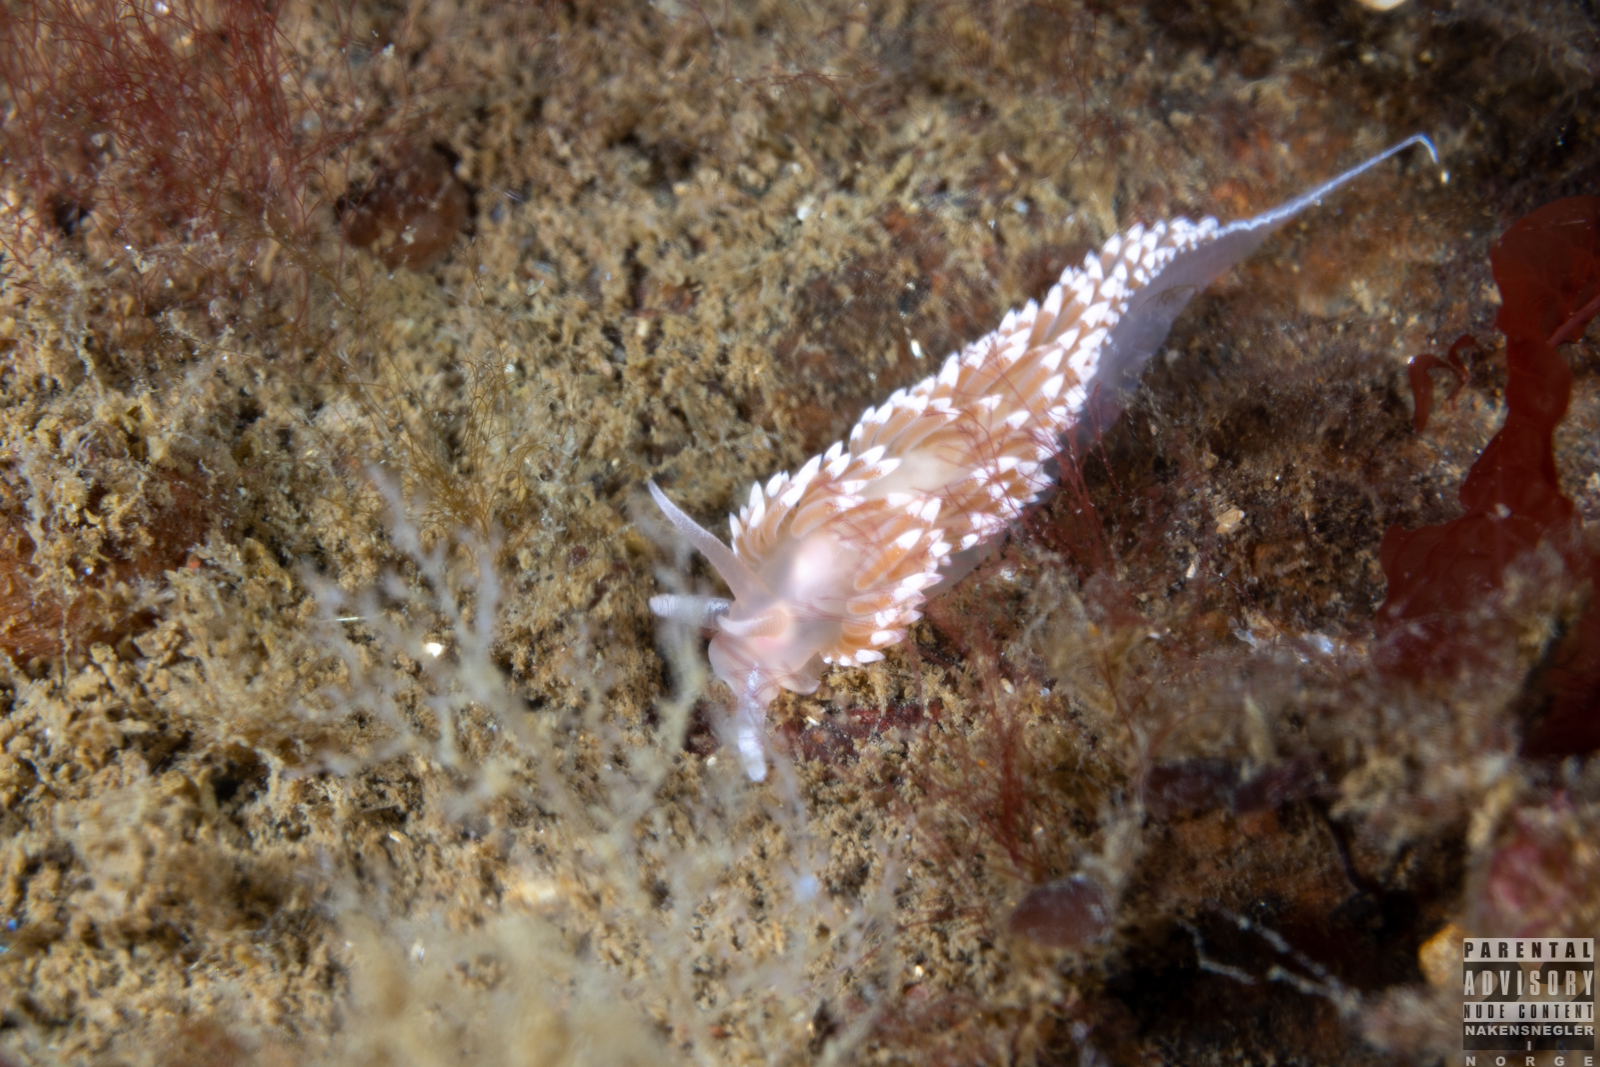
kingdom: Animalia
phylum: Mollusca
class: Gastropoda
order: Nudibranchia
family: Coryphellidae
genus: Coryphella
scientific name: Coryphella verrucosa
